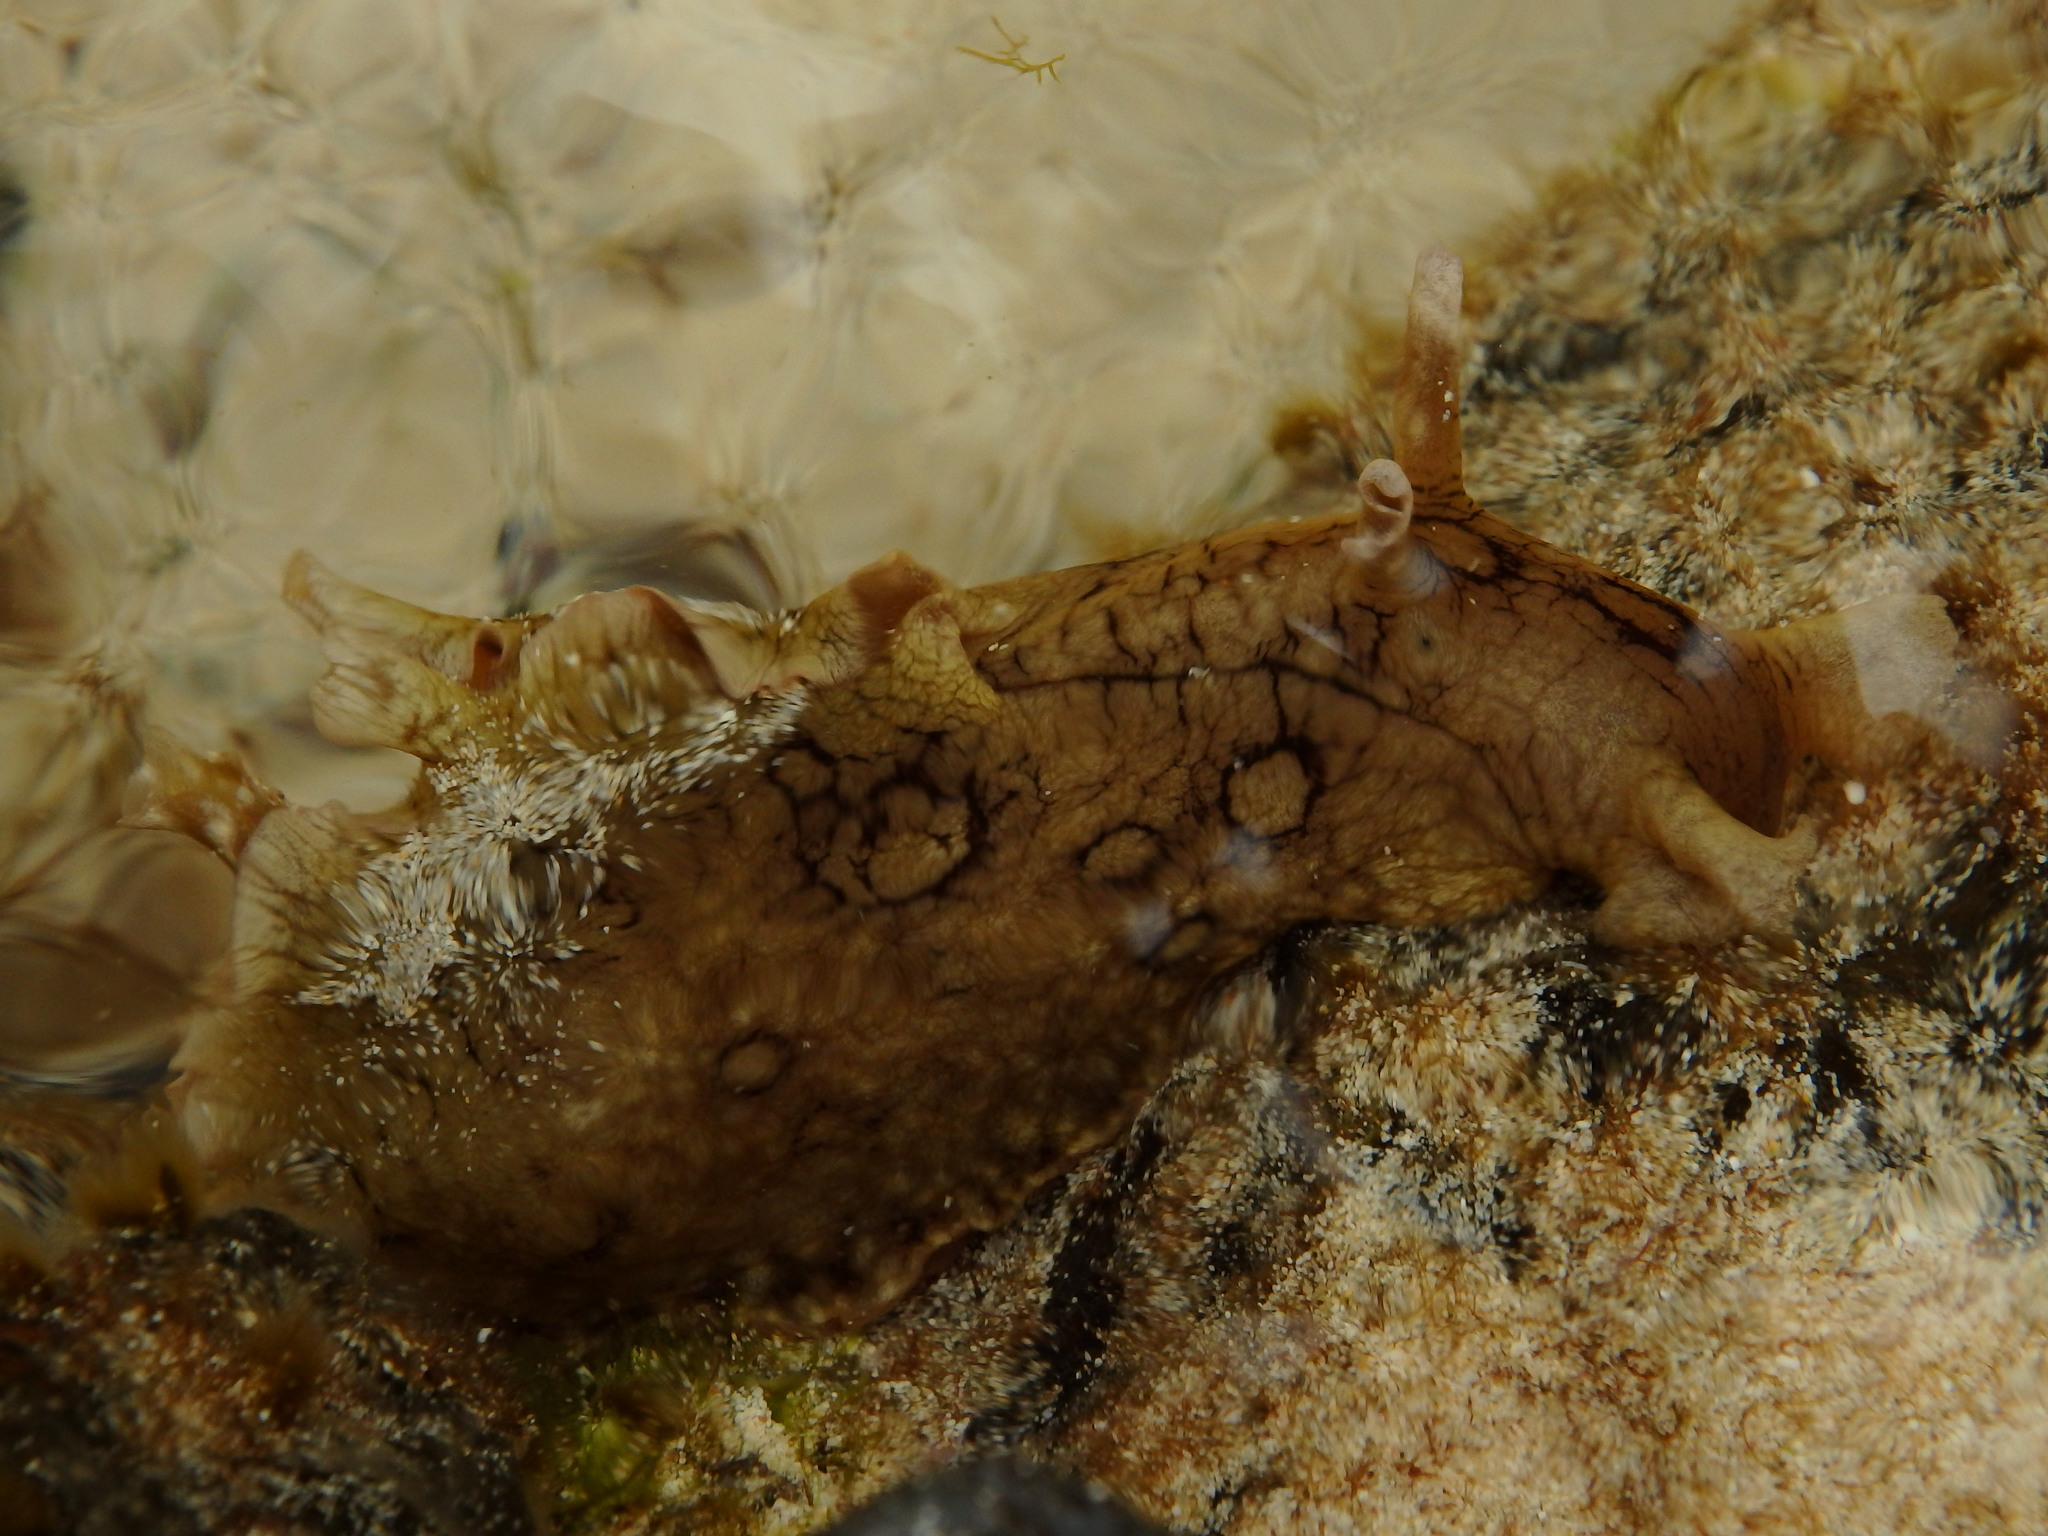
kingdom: Animalia
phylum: Mollusca
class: Gastropoda
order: Aplysiida
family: Aplysiidae
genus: Aplysia
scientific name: Aplysia dactylomela
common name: Large-spotted sea hare
